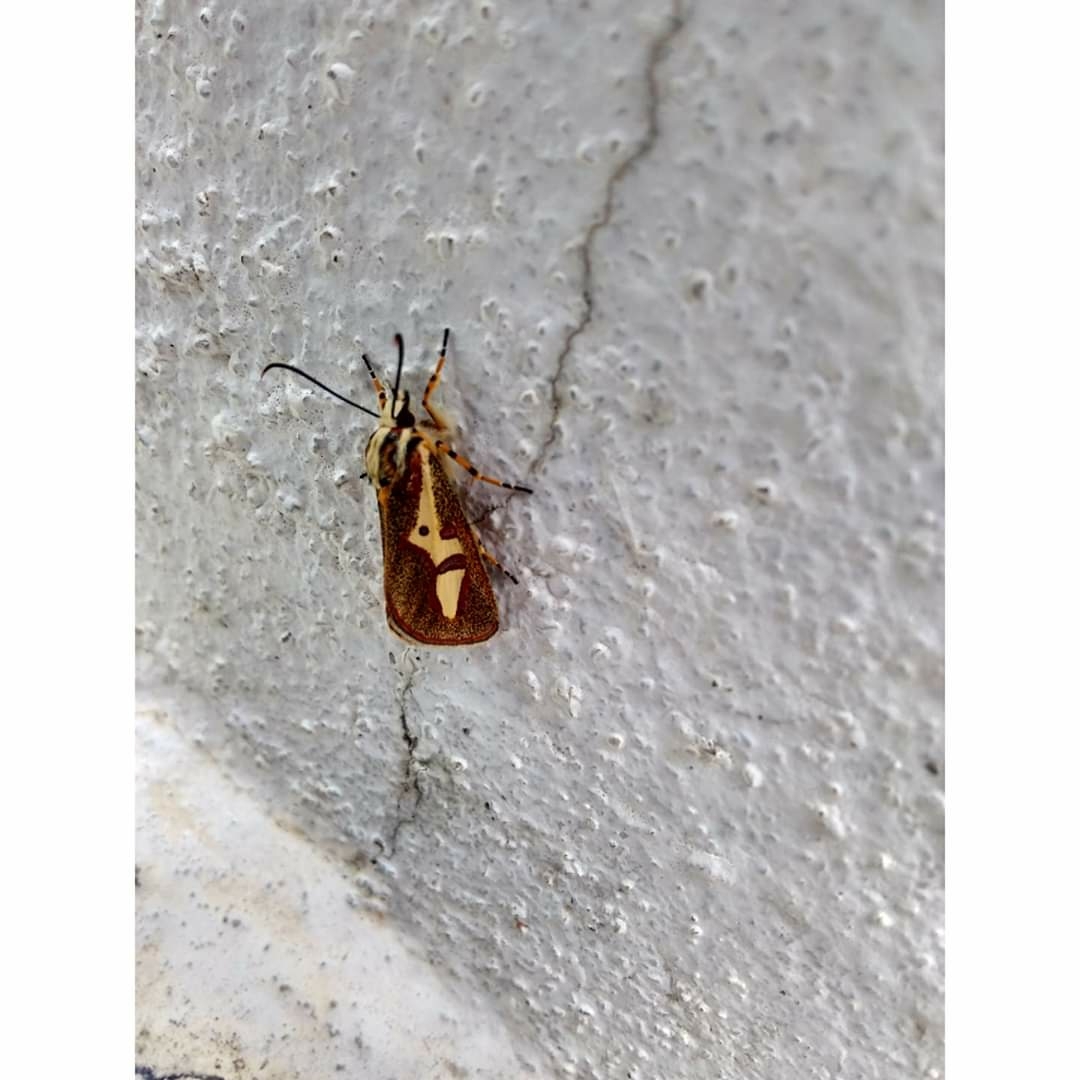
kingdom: Animalia
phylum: Arthropoda
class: Insecta
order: Lepidoptera
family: Noctuidae
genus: Aegocera
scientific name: Aegocera venulia
